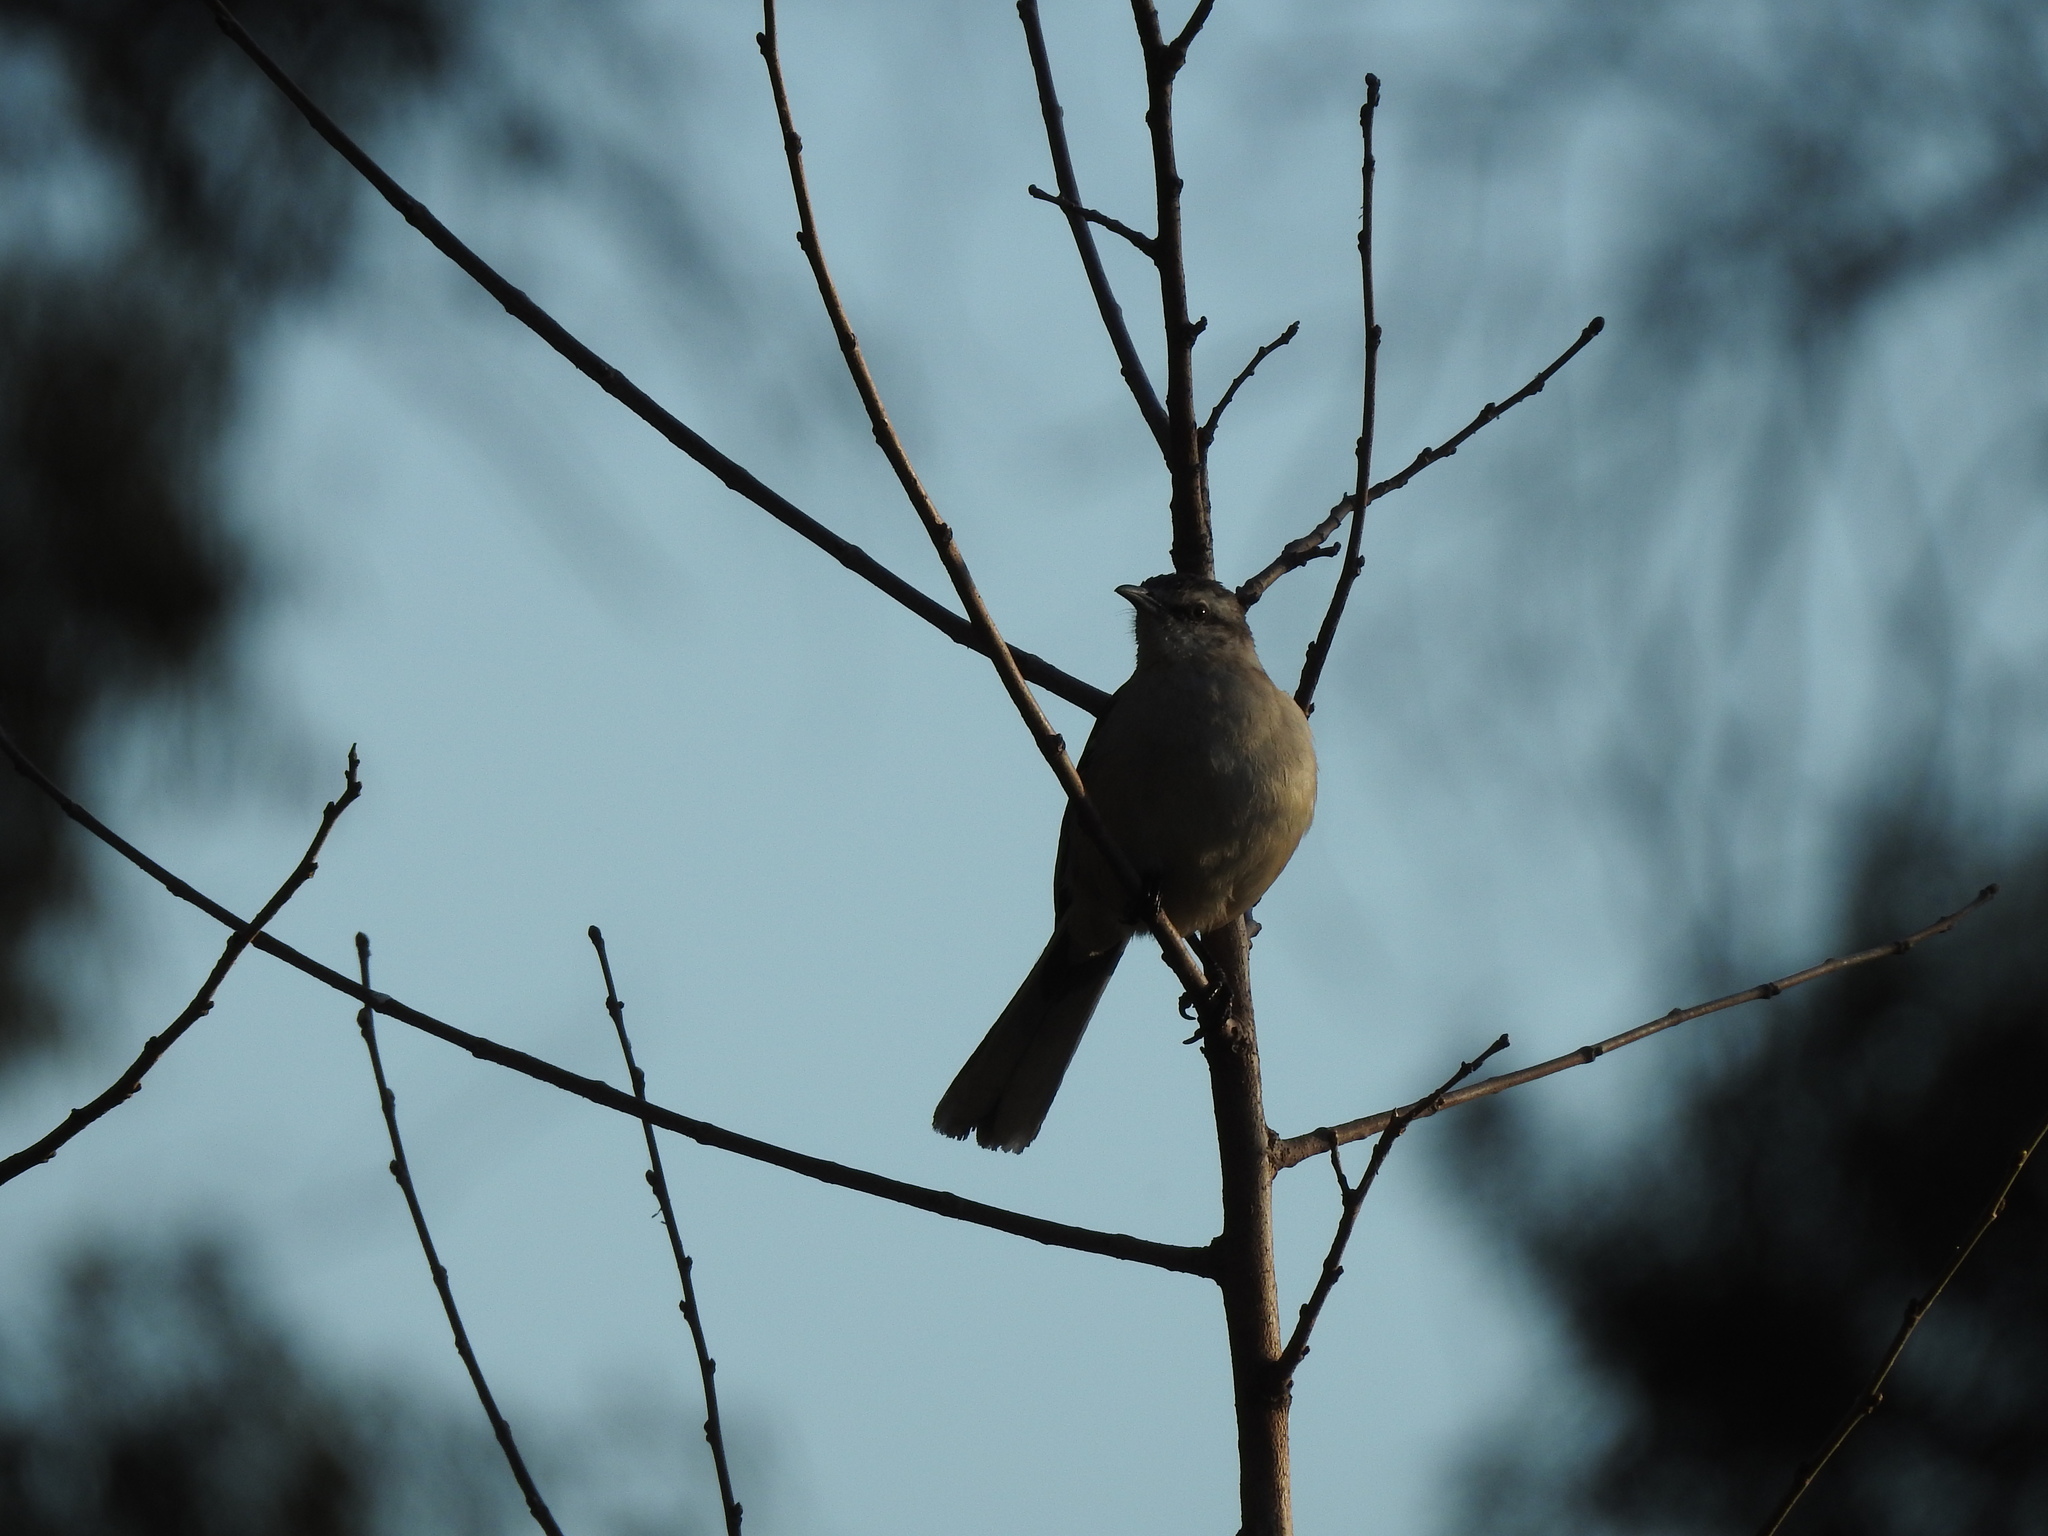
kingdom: Animalia
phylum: Chordata
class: Aves
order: Passeriformes
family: Mimidae
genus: Mimus
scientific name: Mimus saturninus
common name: Chalk-browed mockingbird
